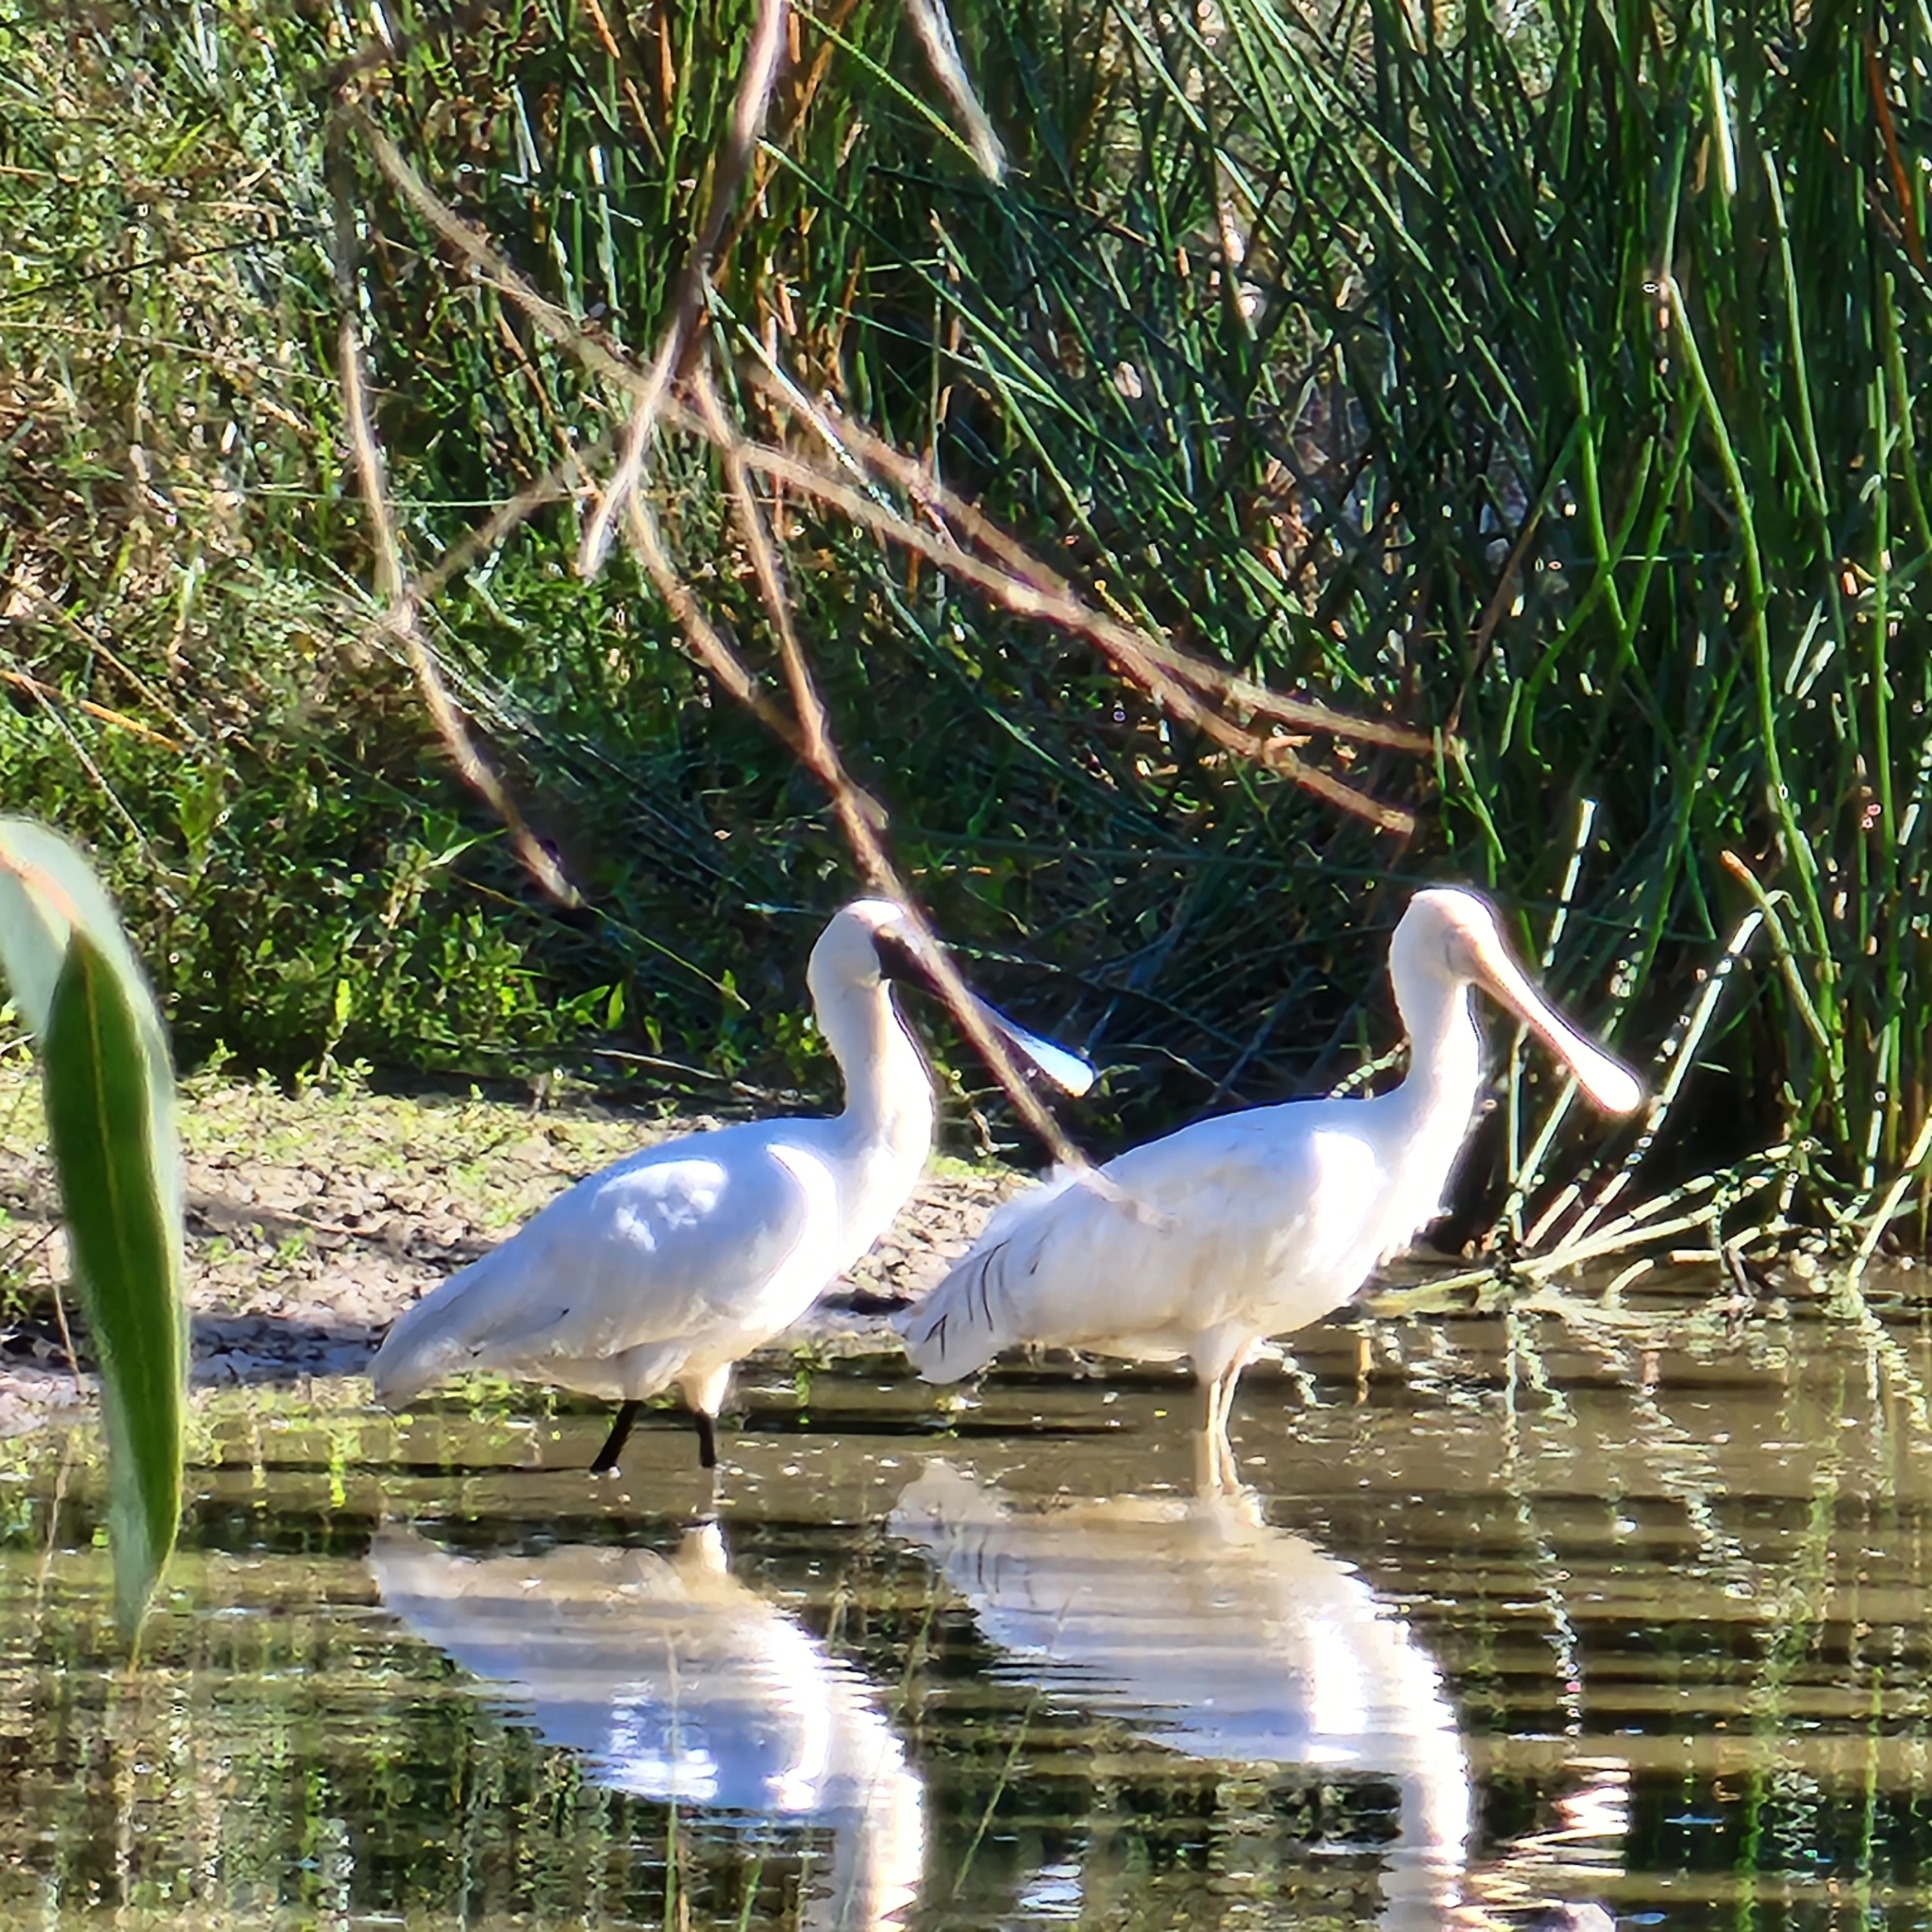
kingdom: Animalia
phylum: Chordata
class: Aves
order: Pelecaniformes
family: Threskiornithidae
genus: Platalea
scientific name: Platalea regia
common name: Royal spoonbill
